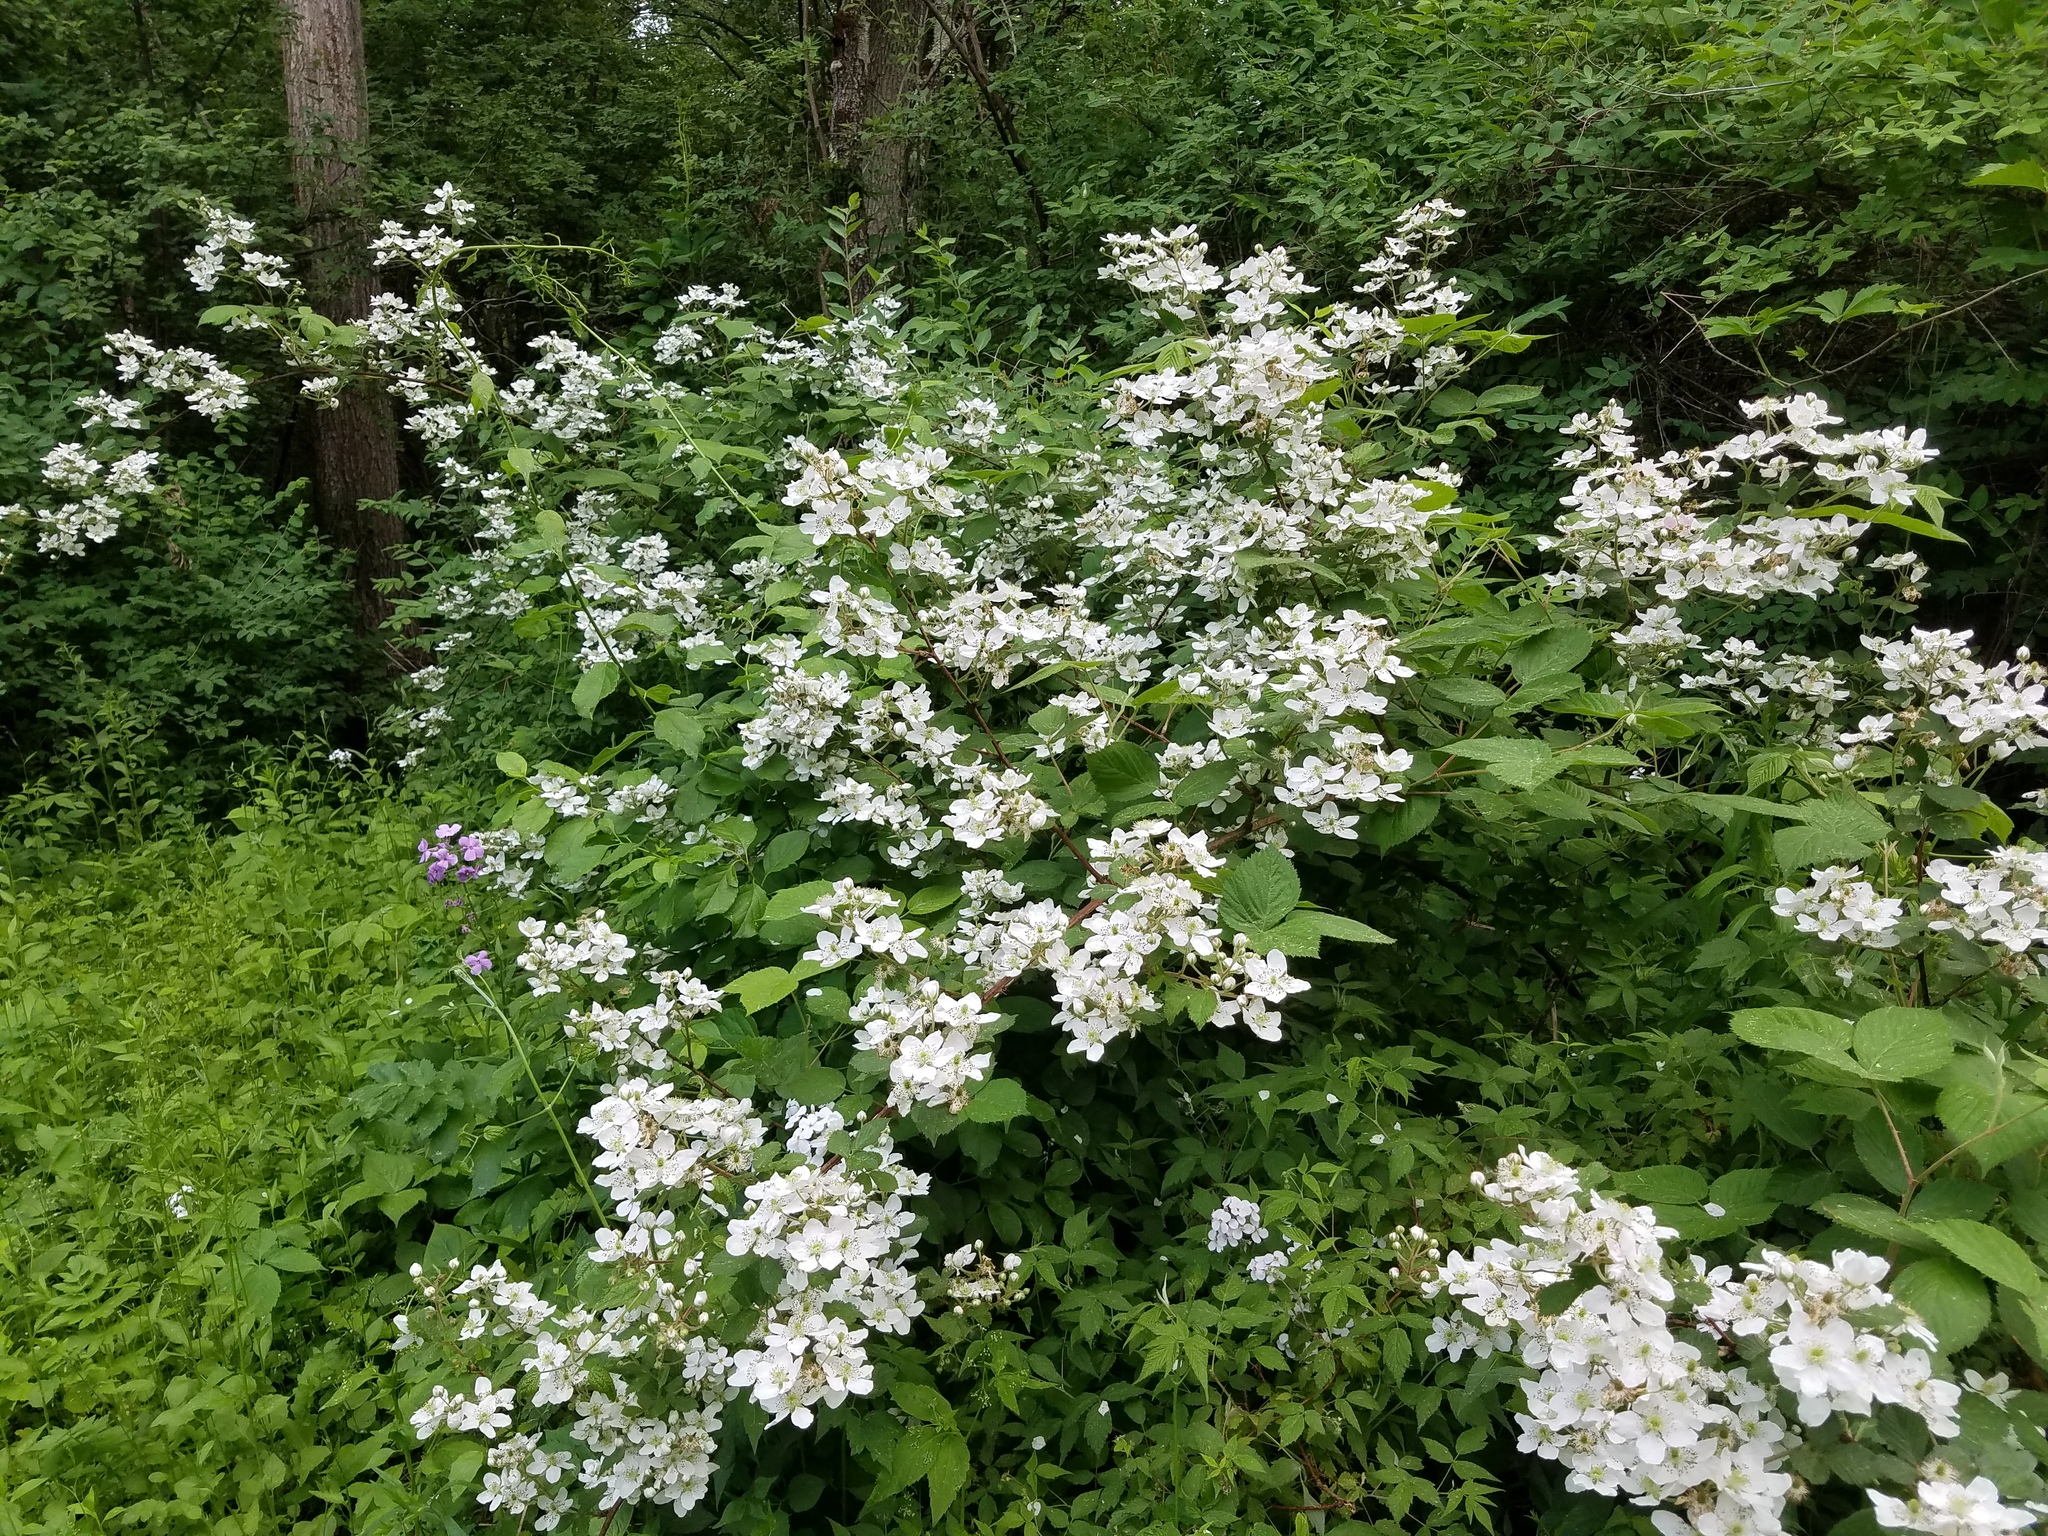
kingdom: Plantae
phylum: Tracheophyta
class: Magnoliopsida
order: Rosales
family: Rosaceae
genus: Rubus
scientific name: Rubus allegheniensis
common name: Allegheny blackberry
